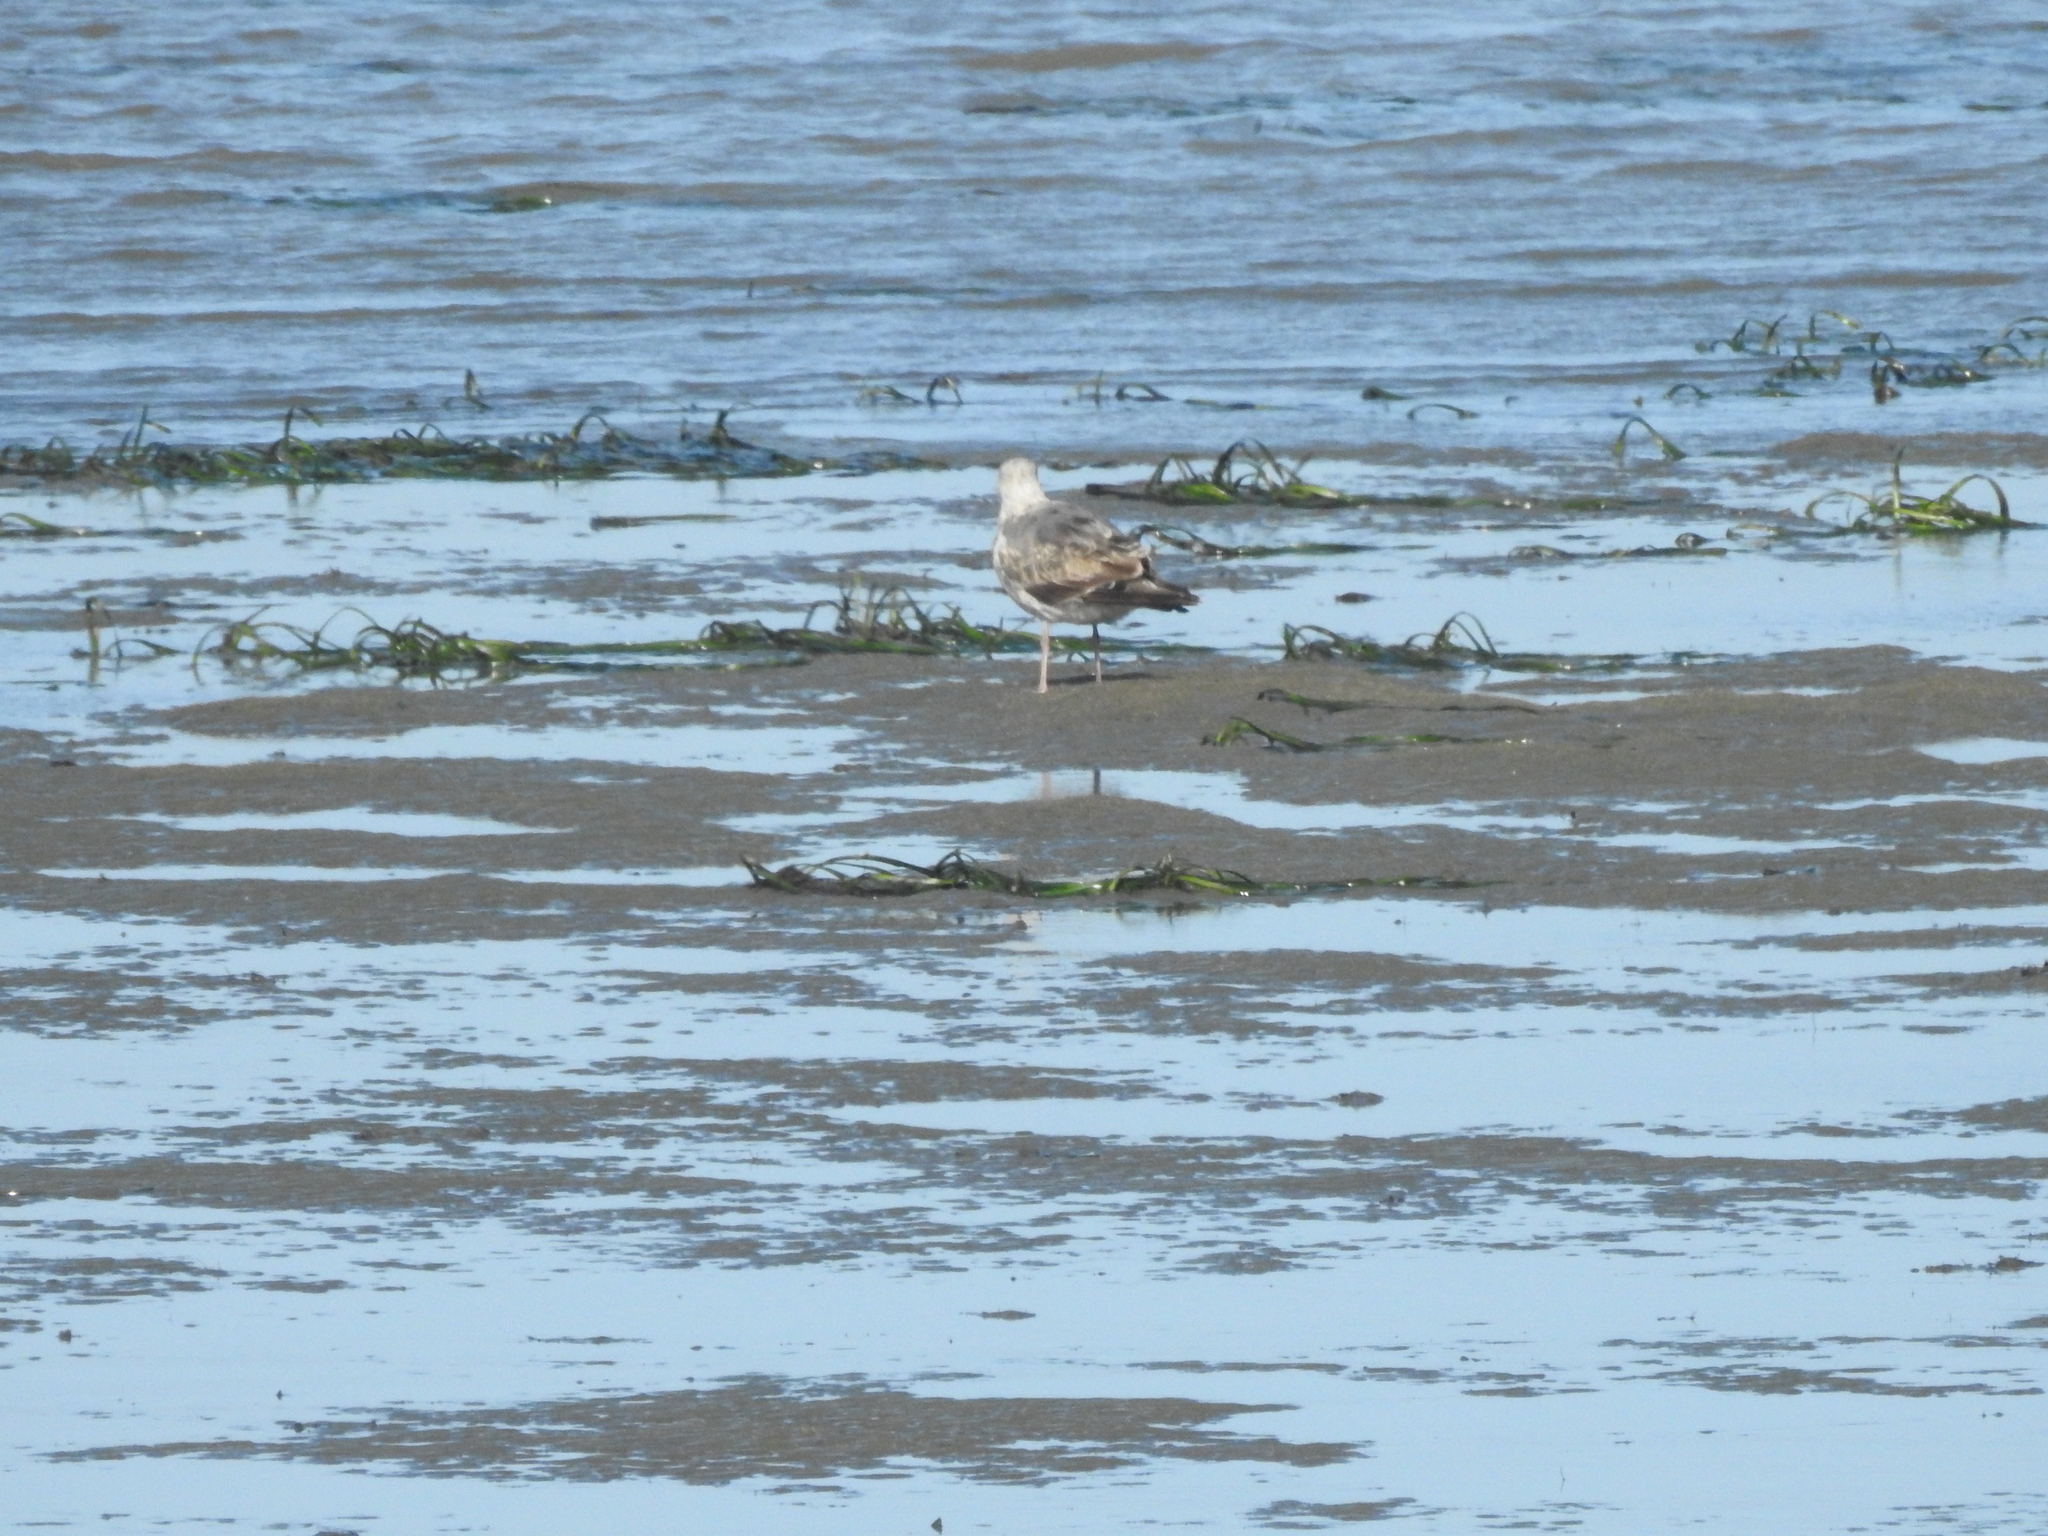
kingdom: Animalia
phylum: Chordata
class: Aves
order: Charadriiformes
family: Laridae
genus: Larus
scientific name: Larus occidentalis
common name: Western gull
